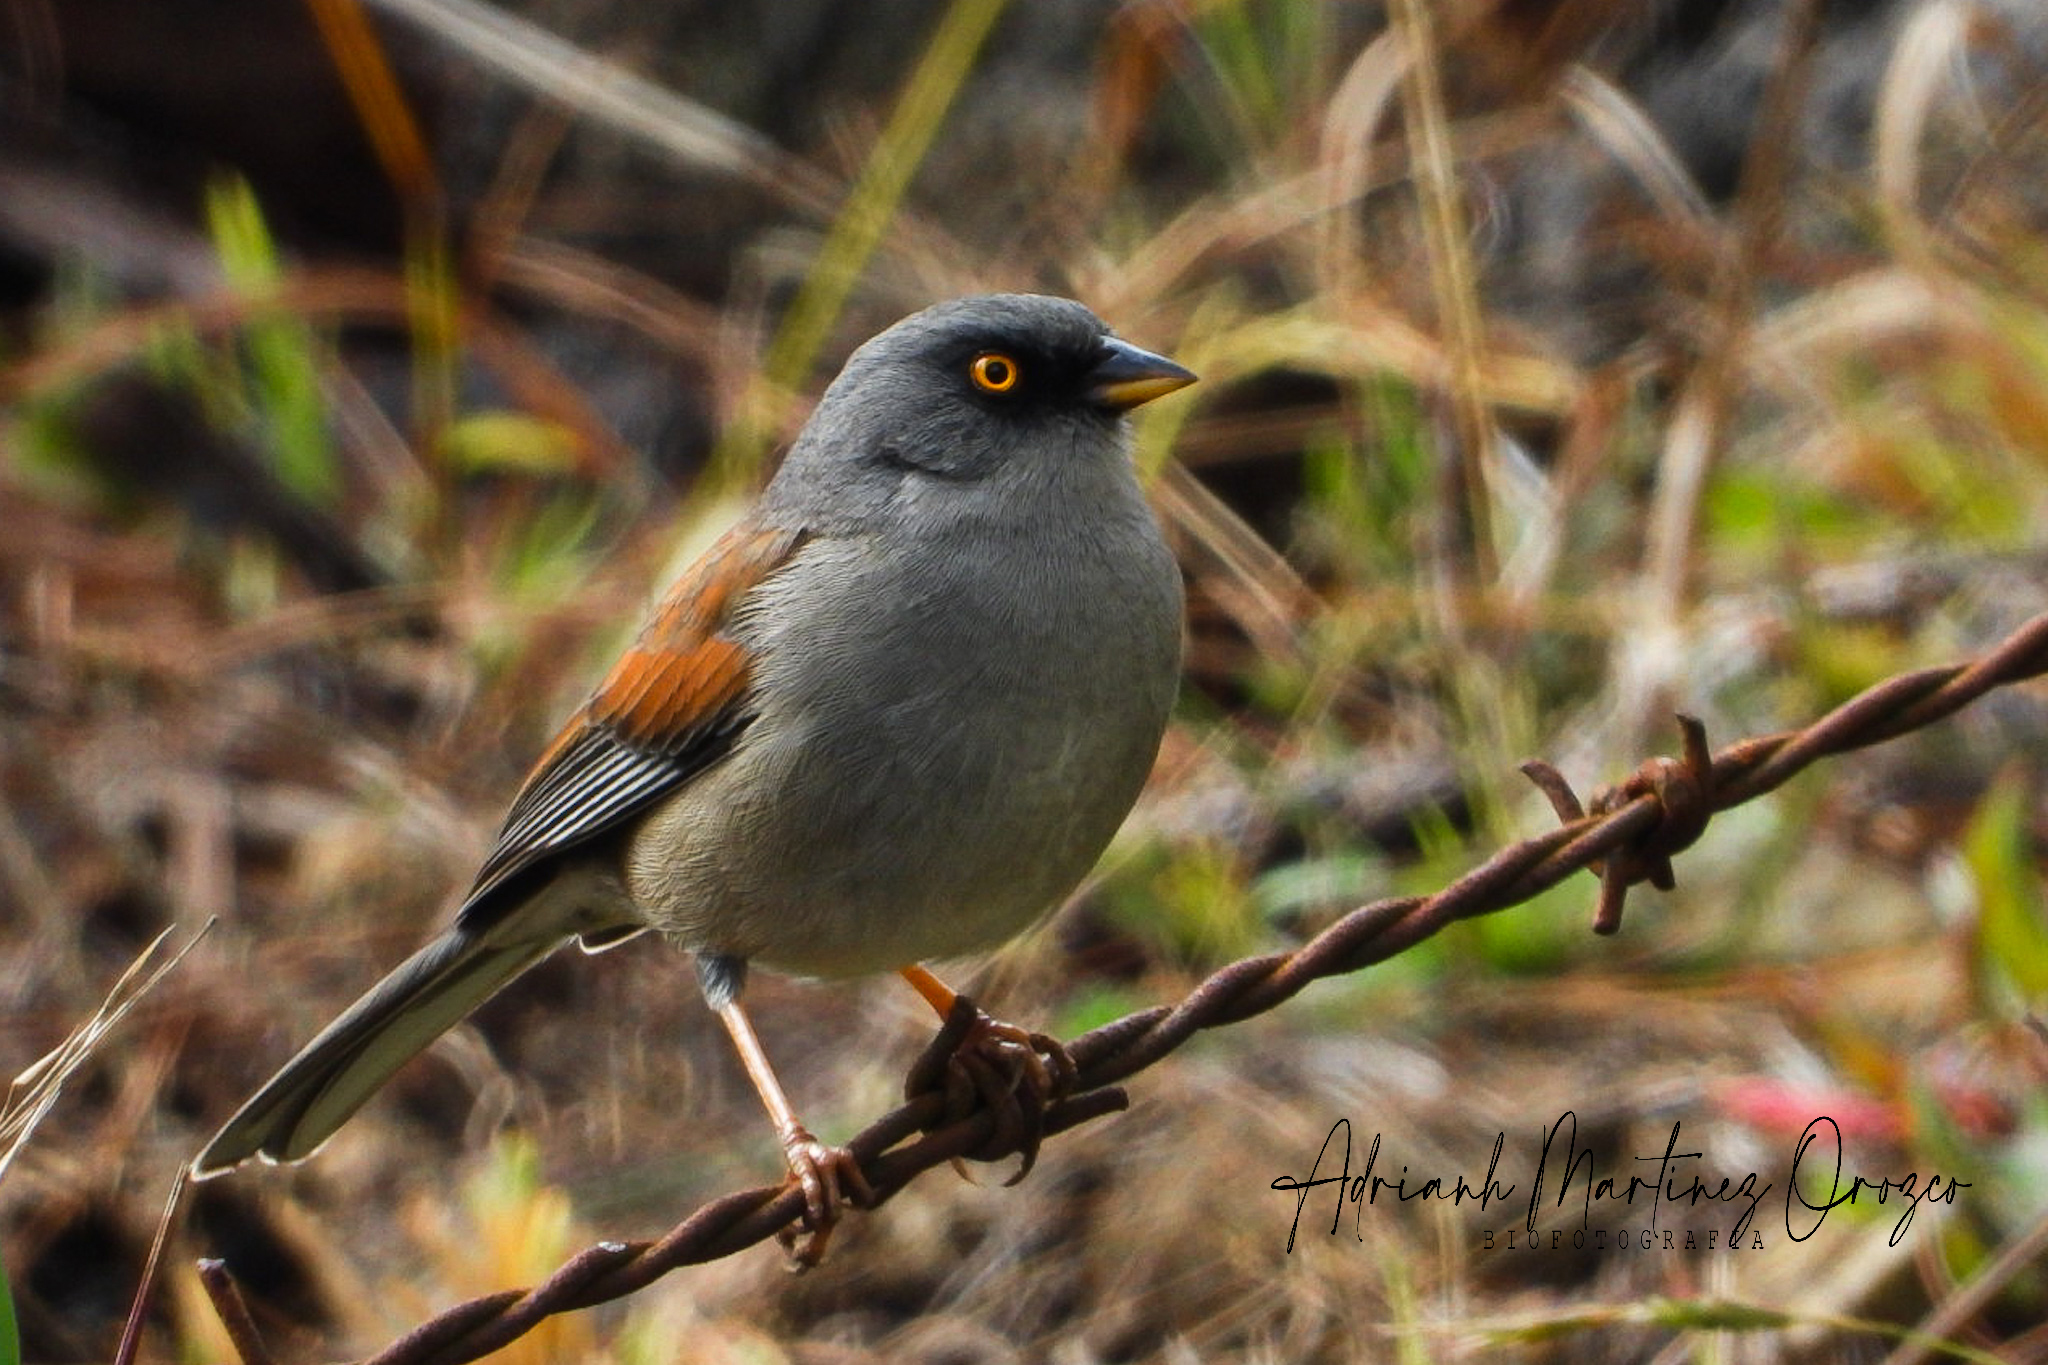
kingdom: Animalia
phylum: Chordata
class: Aves
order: Passeriformes
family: Passerellidae
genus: Junco
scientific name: Junco phaeonotus
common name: Yellow-eyed junco
